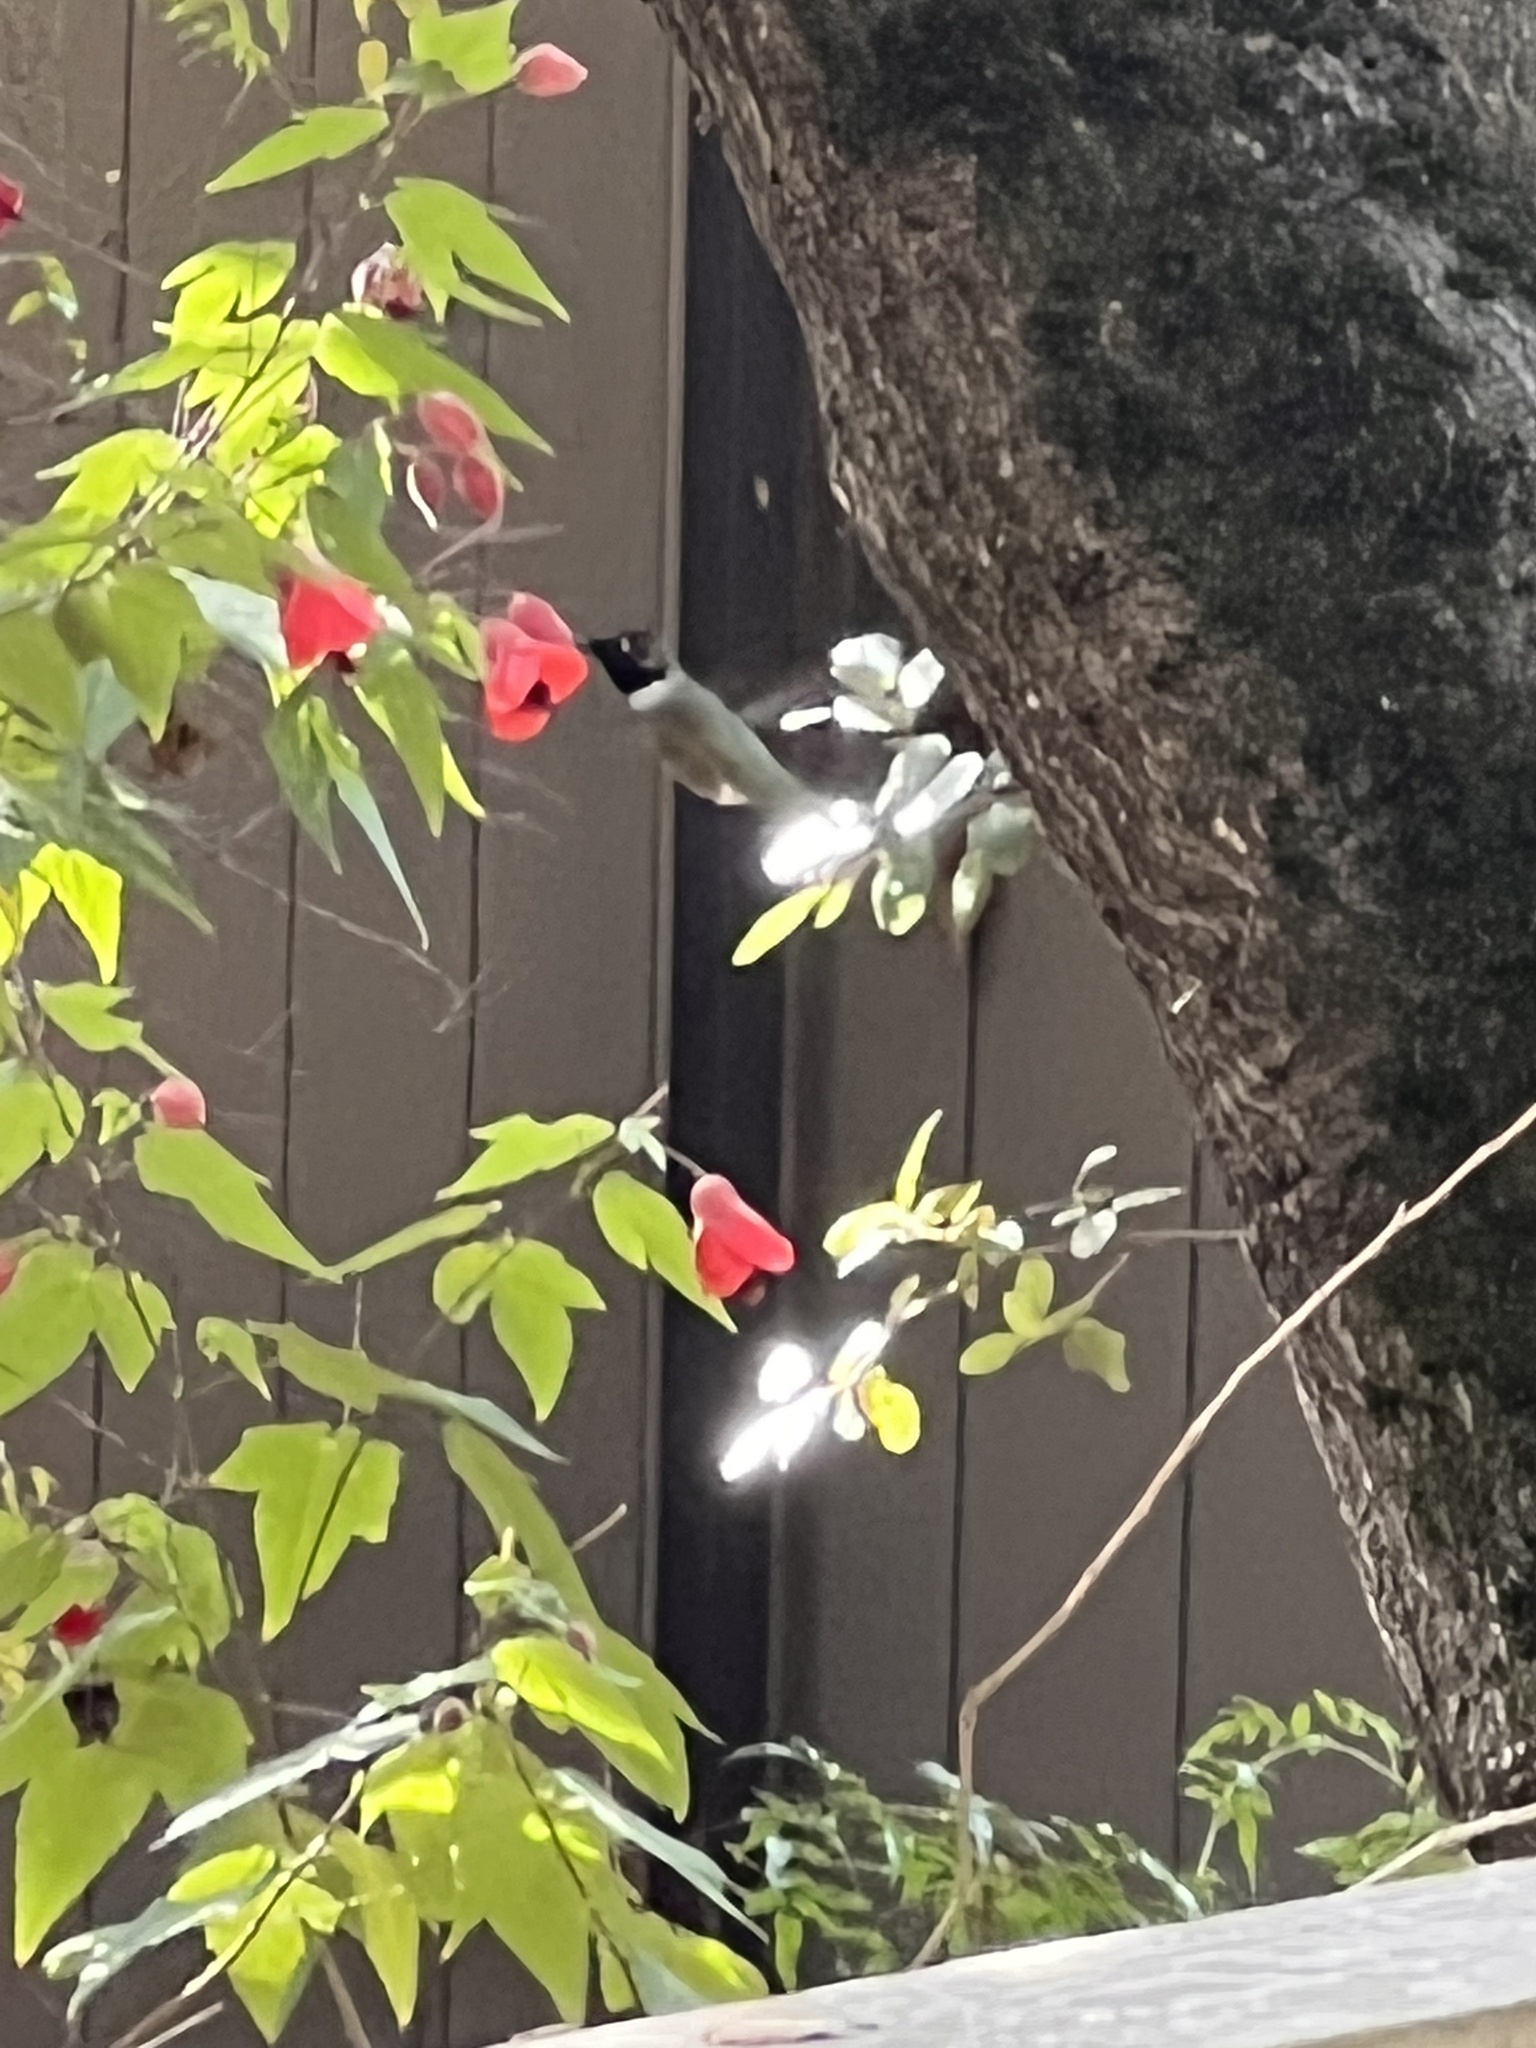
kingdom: Animalia
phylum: Chordata
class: Aves
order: Apodiformes
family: Trochilidae
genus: Calypte
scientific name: Calypte anna
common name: Anna's hummingbird
